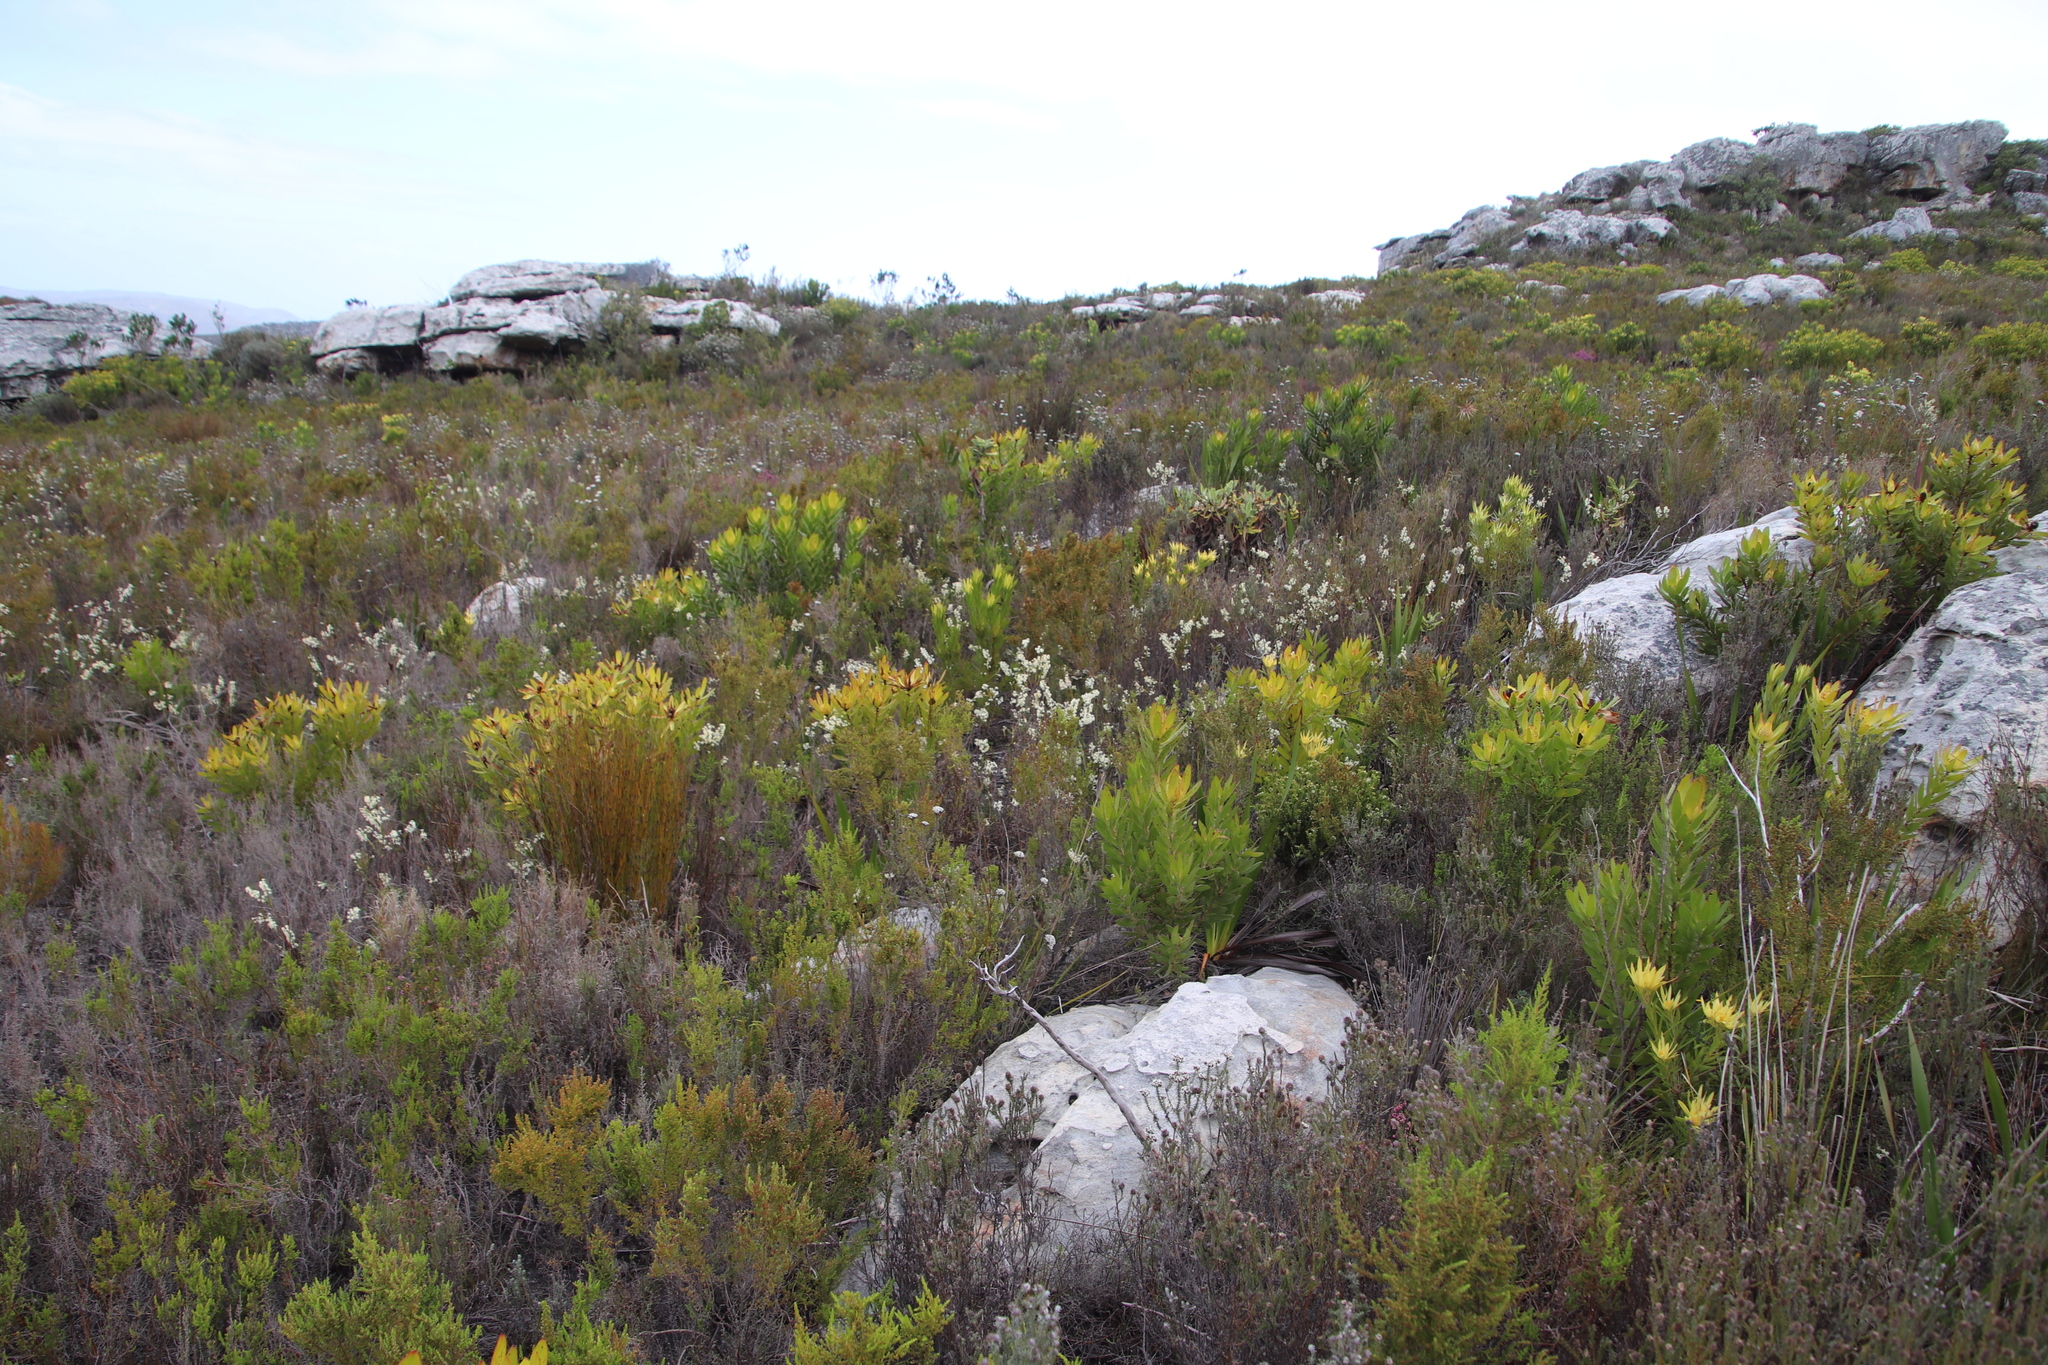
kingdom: Plantae
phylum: Tracheophyta
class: Magnoliopsida
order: Malvales
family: Thymelaeaceae
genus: Struthiola
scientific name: Struthiola ciliata
